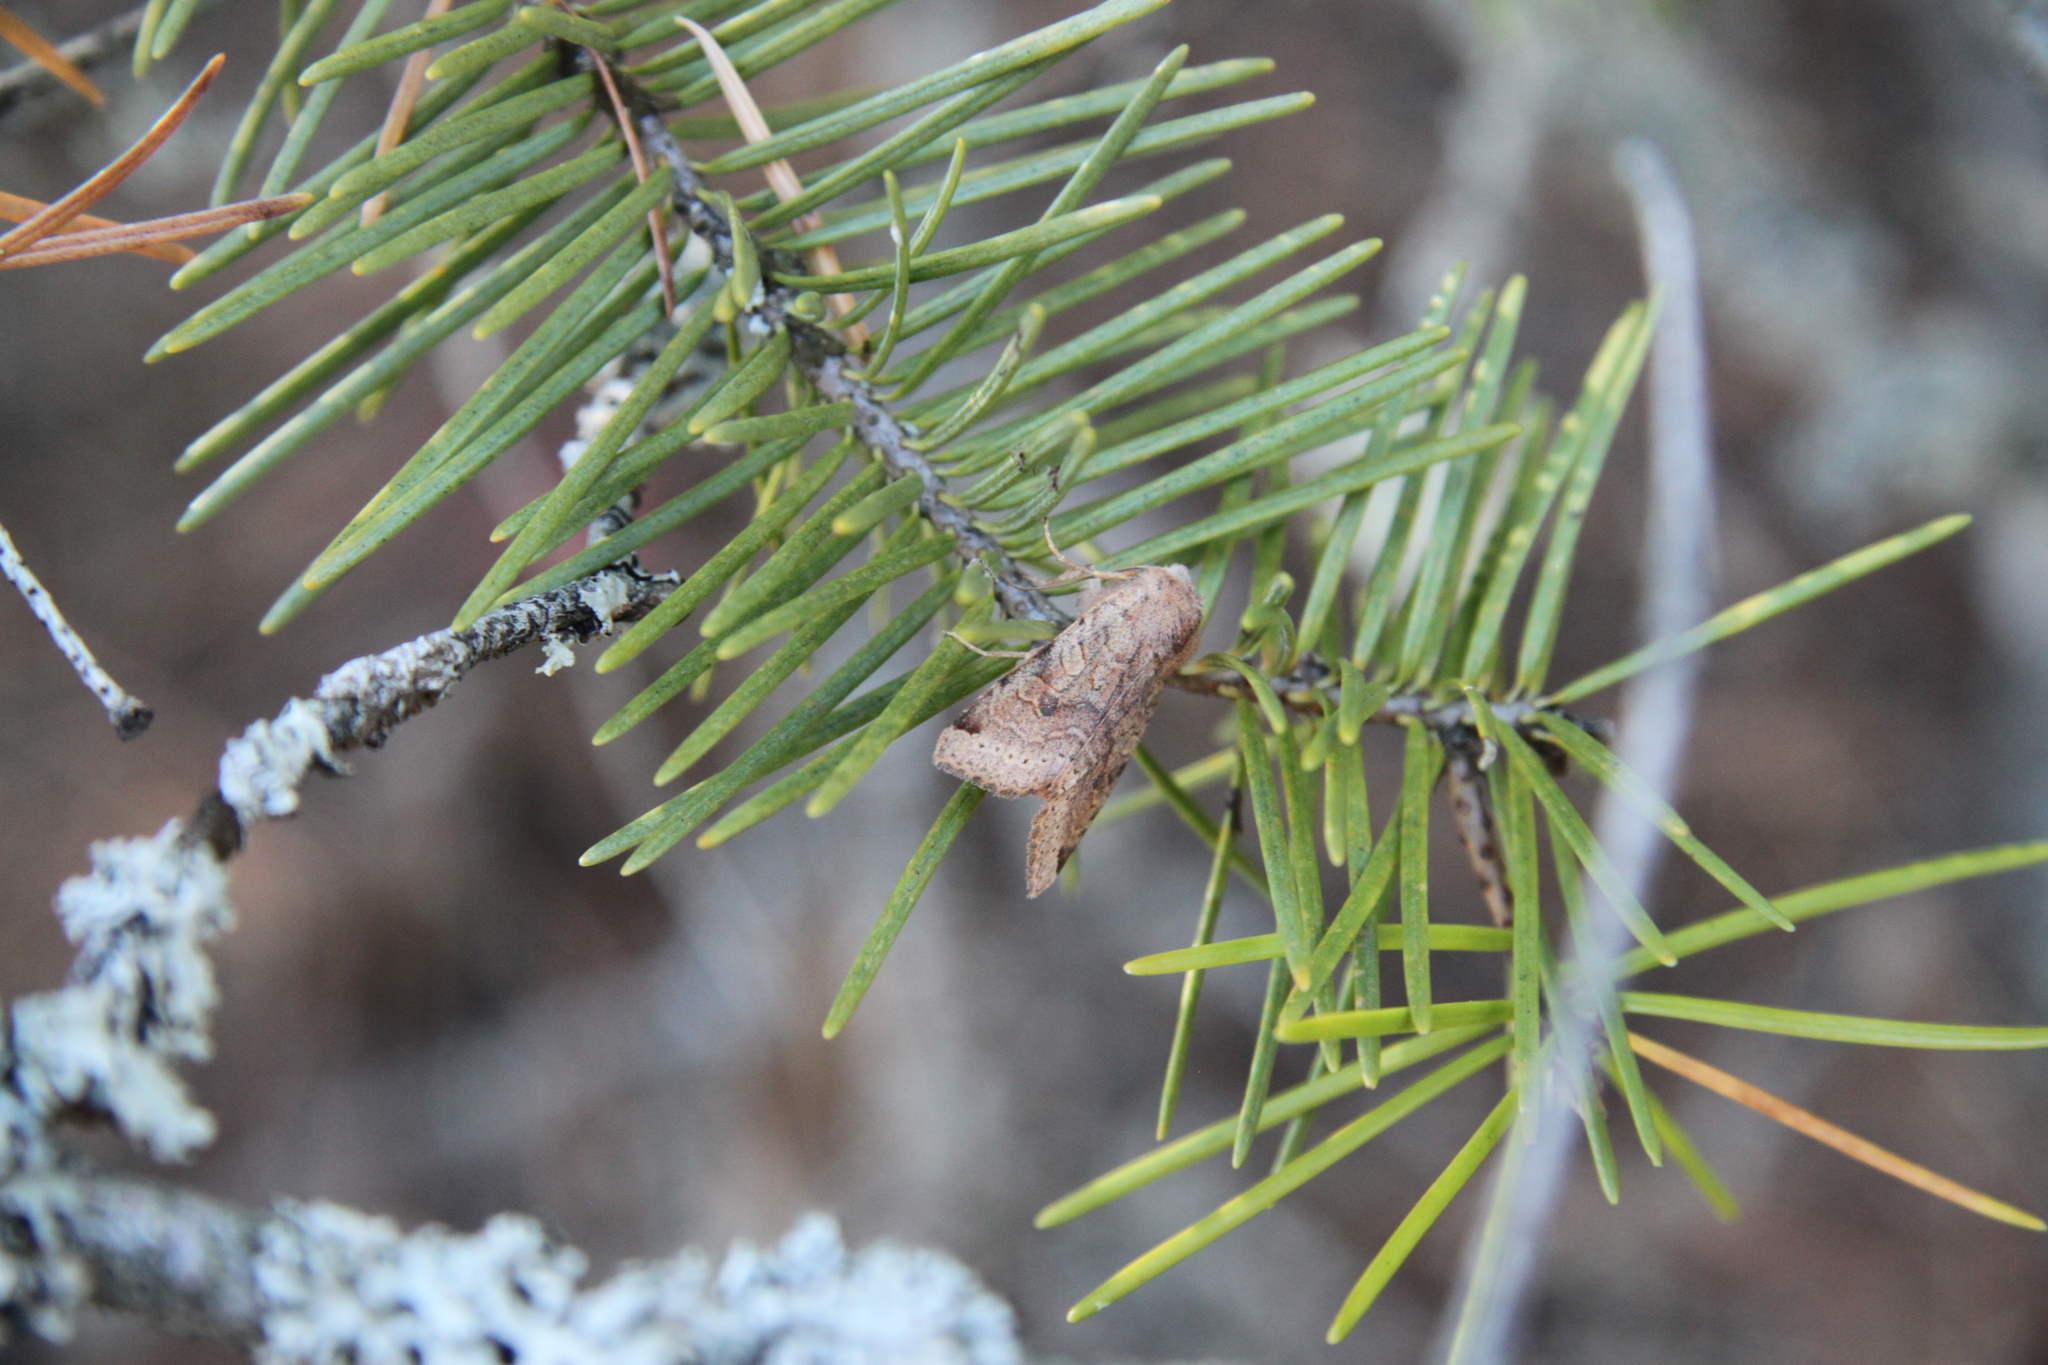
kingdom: Animalia
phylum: Arthropoda
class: Insecta
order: Lepidoptera
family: Noctuidae
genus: Agrochola
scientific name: Agrochola purpurea
